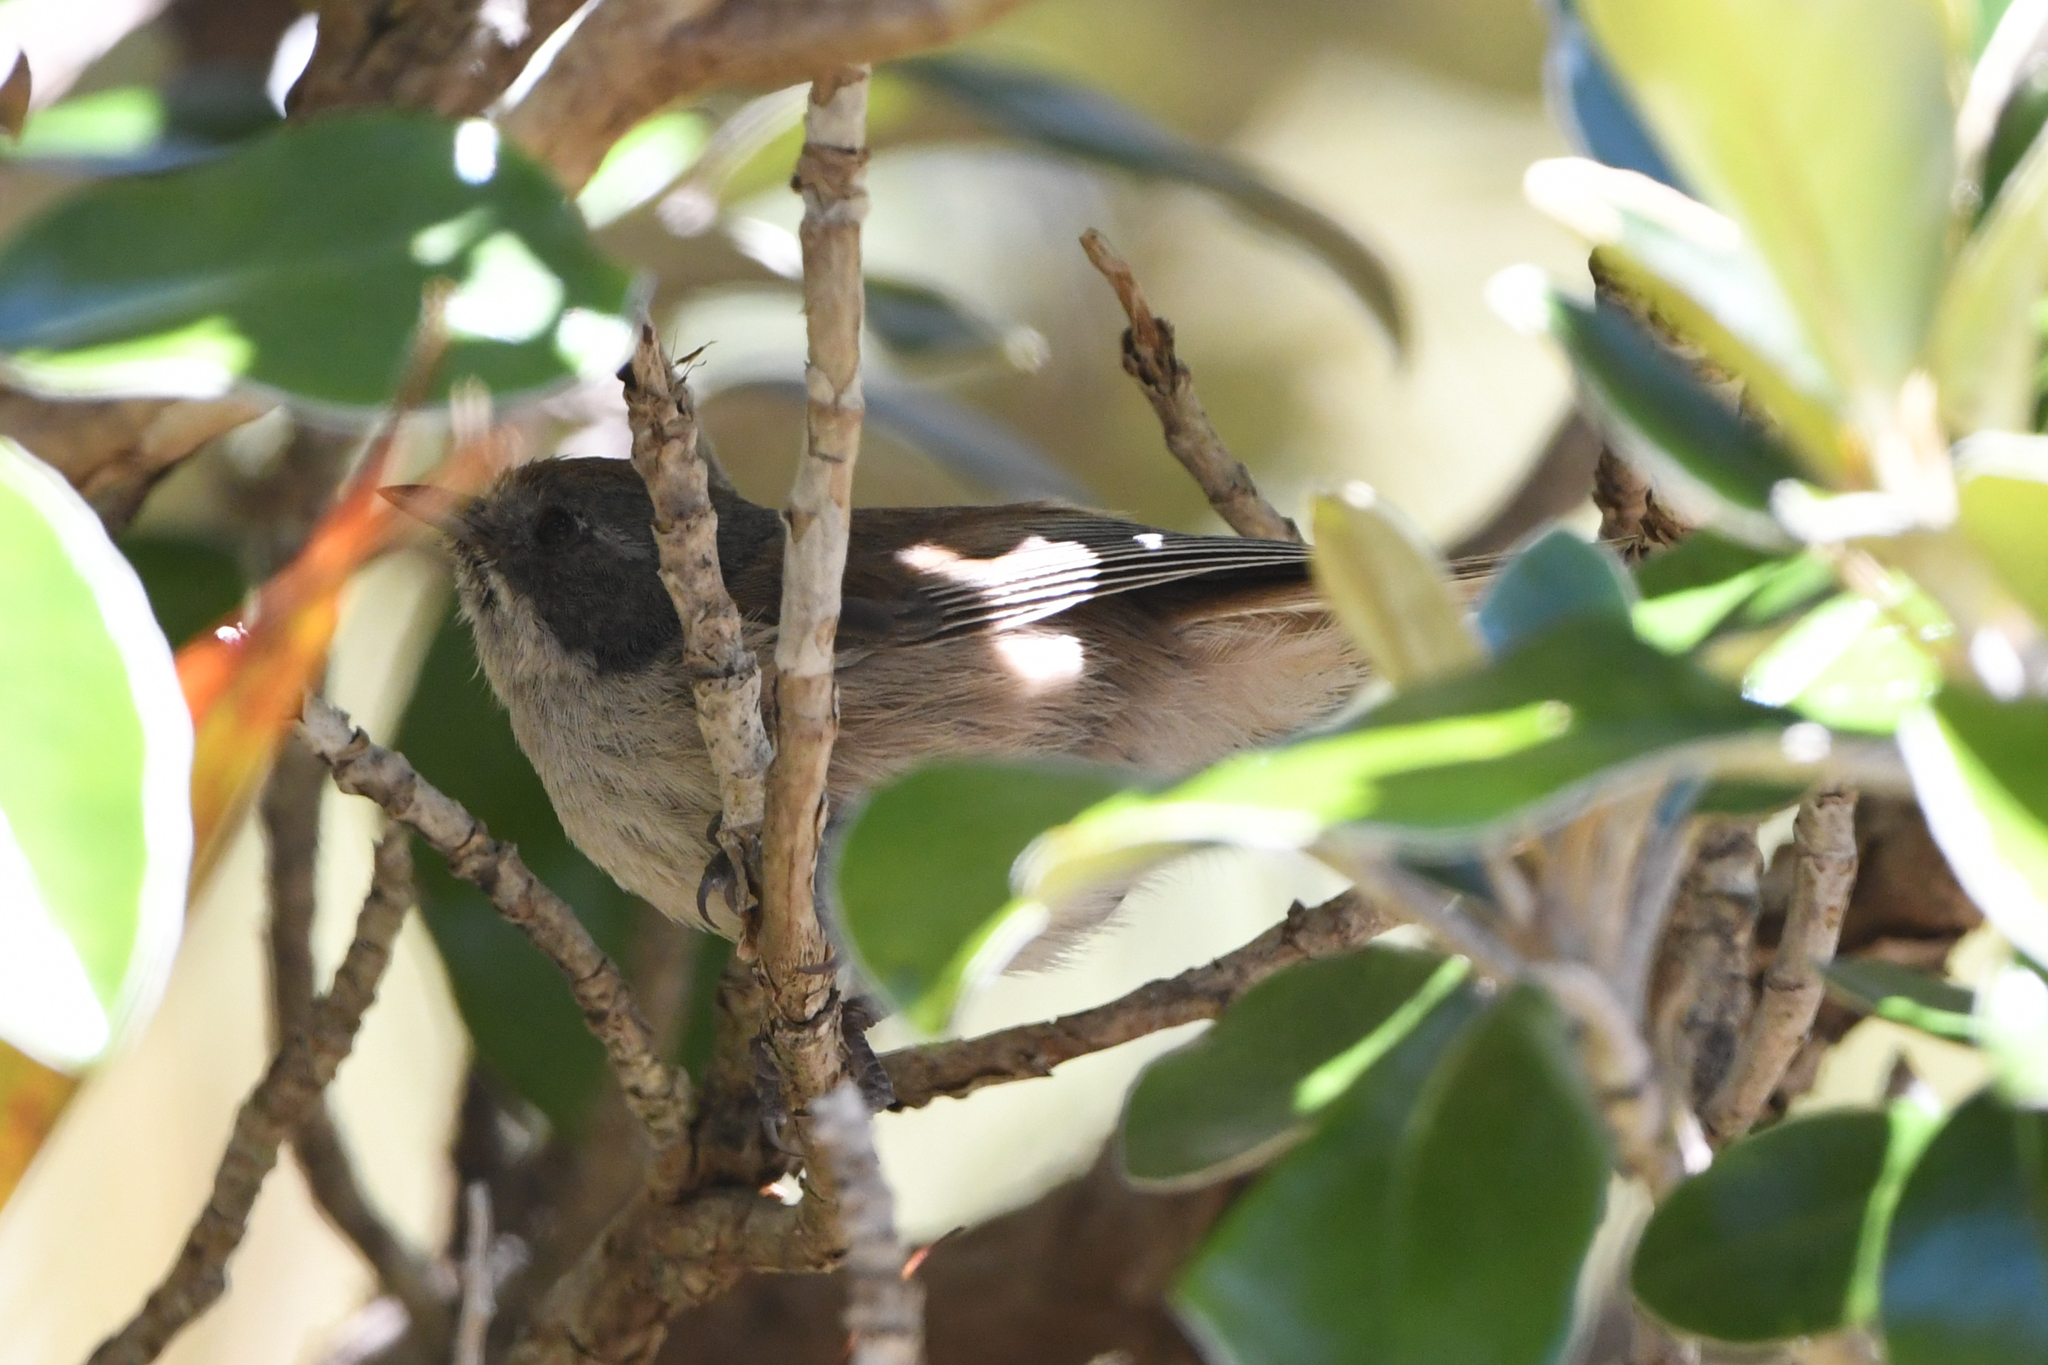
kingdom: Animalia
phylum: Chordata
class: Aves
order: Passeriformes
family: Acanthizidae
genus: Finschia
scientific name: Finschia novaeseelandiae
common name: Pipipi
